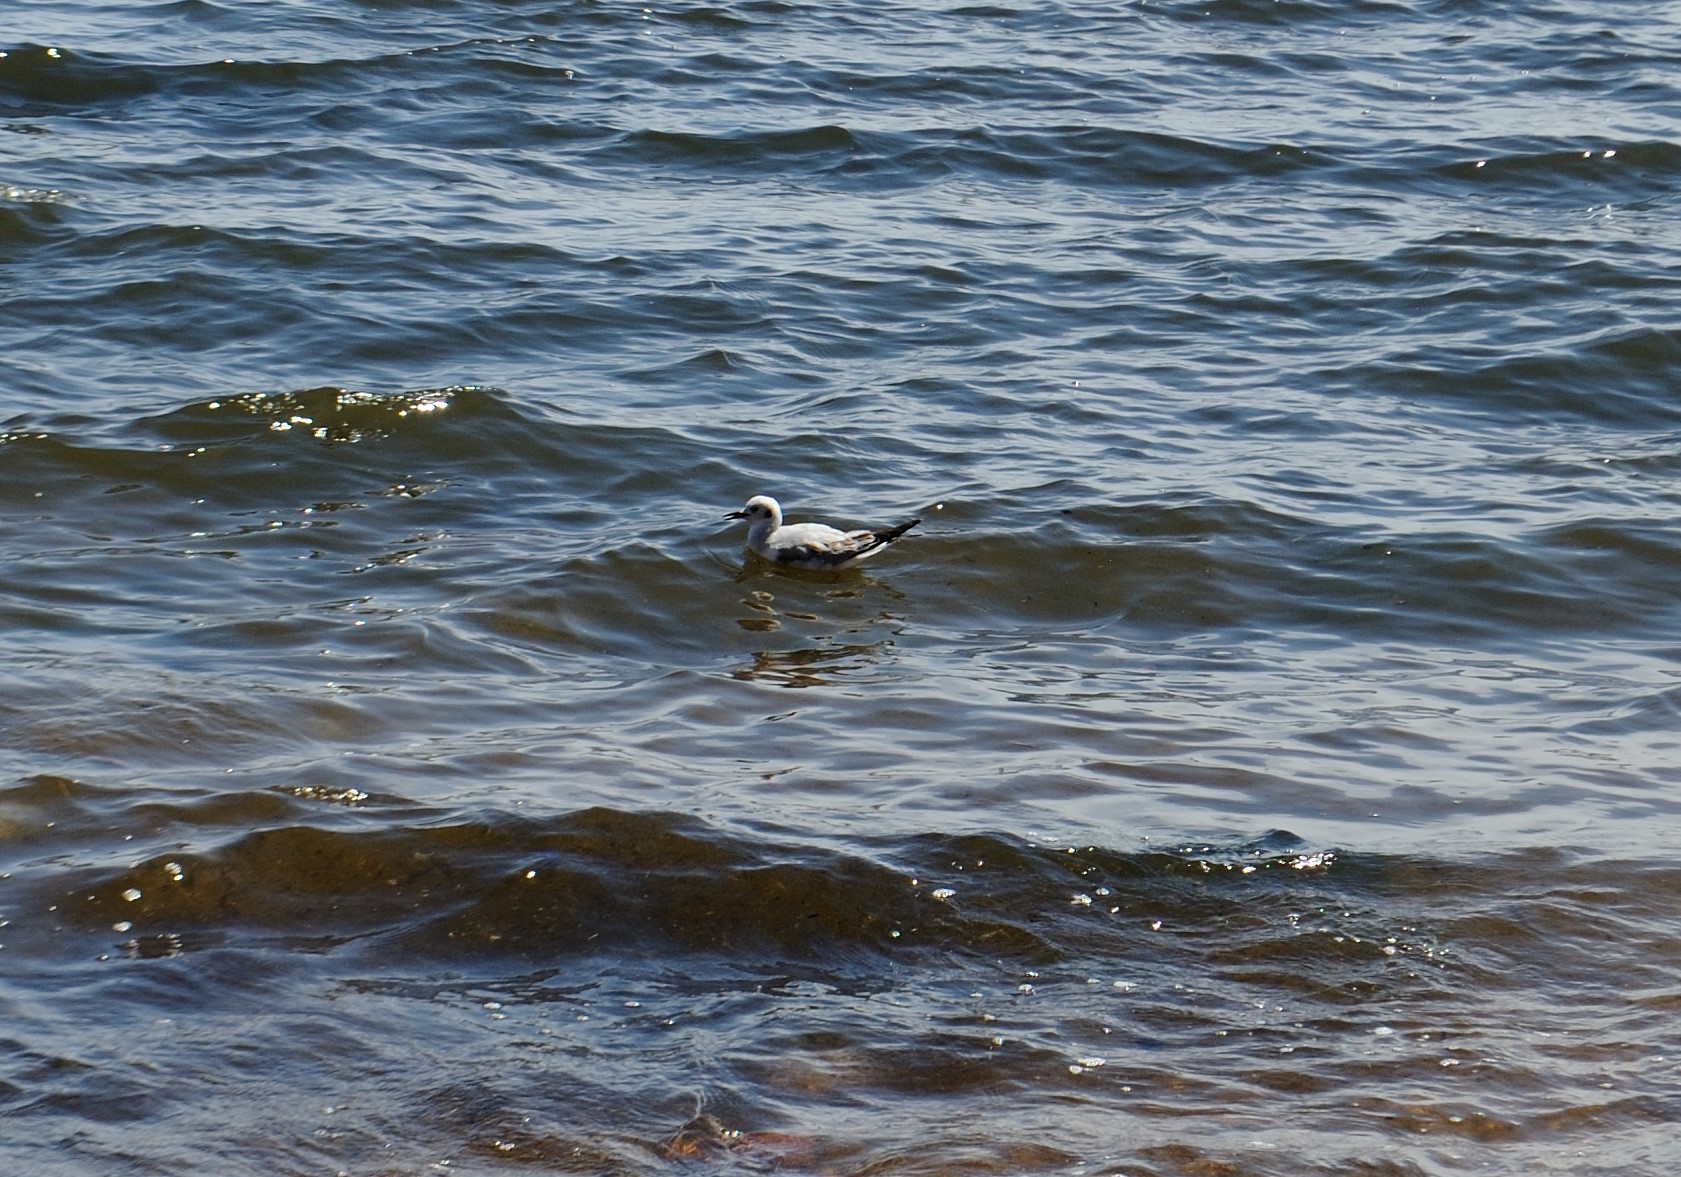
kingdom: Animalia
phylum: Chordata
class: Aves
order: Charadriiformes
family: Laridae
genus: Chroicocephalus
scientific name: Chroicocephalus philadelphia
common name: Bonaparte's gull
